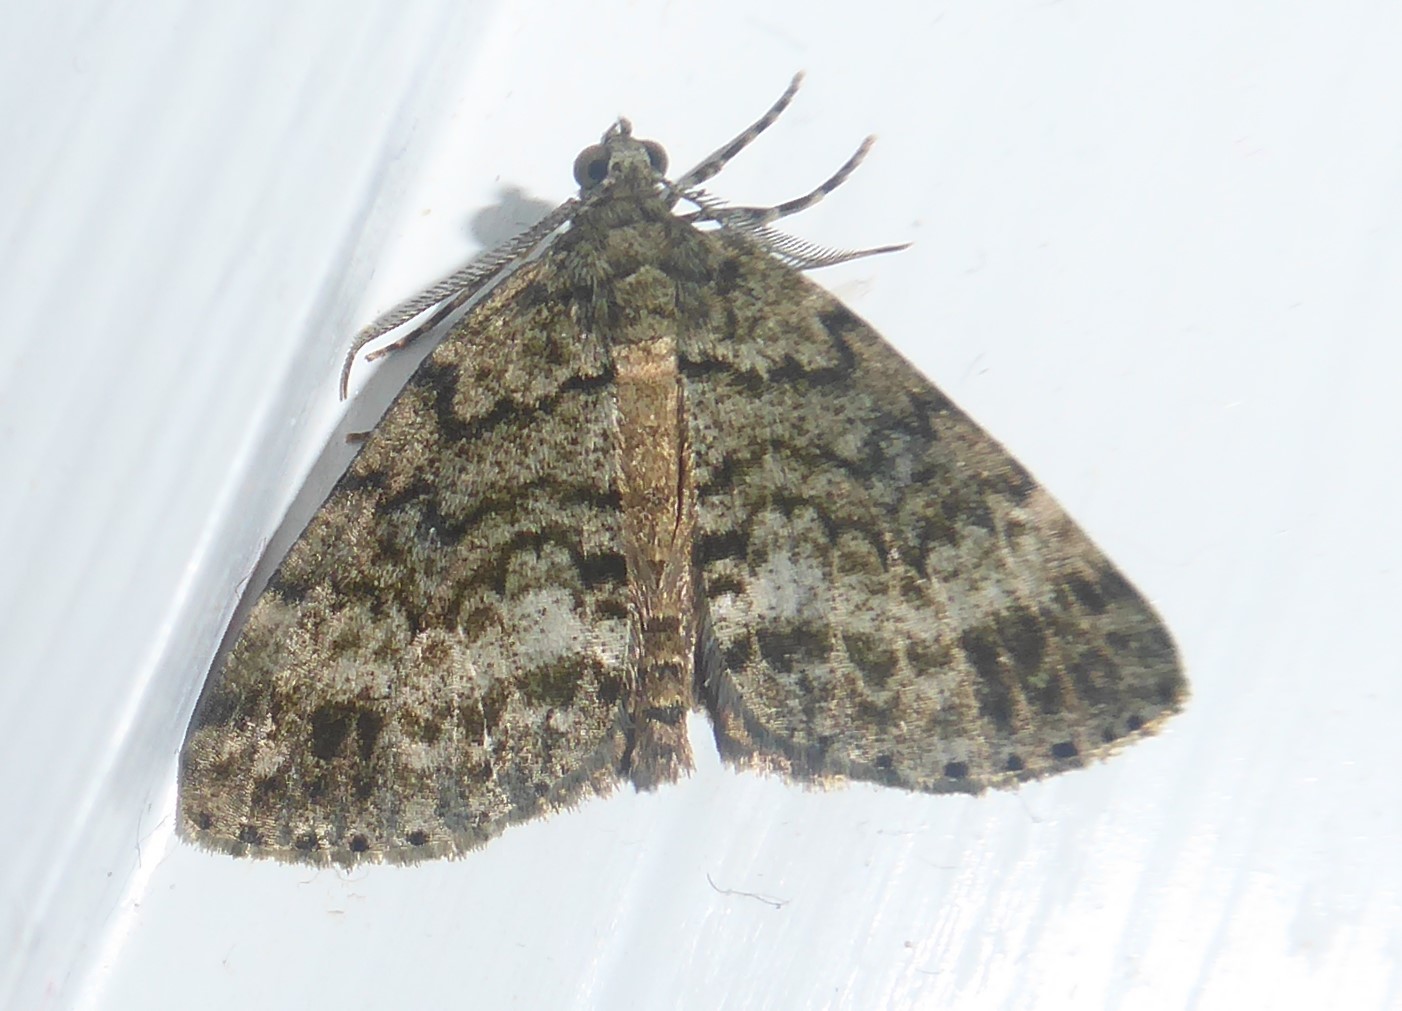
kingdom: Animalia
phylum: Arthropoda
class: Insecta
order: Lepidoptera
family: Geometridae
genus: Pseudocoremia
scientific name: Pseudocoremia indistincta
